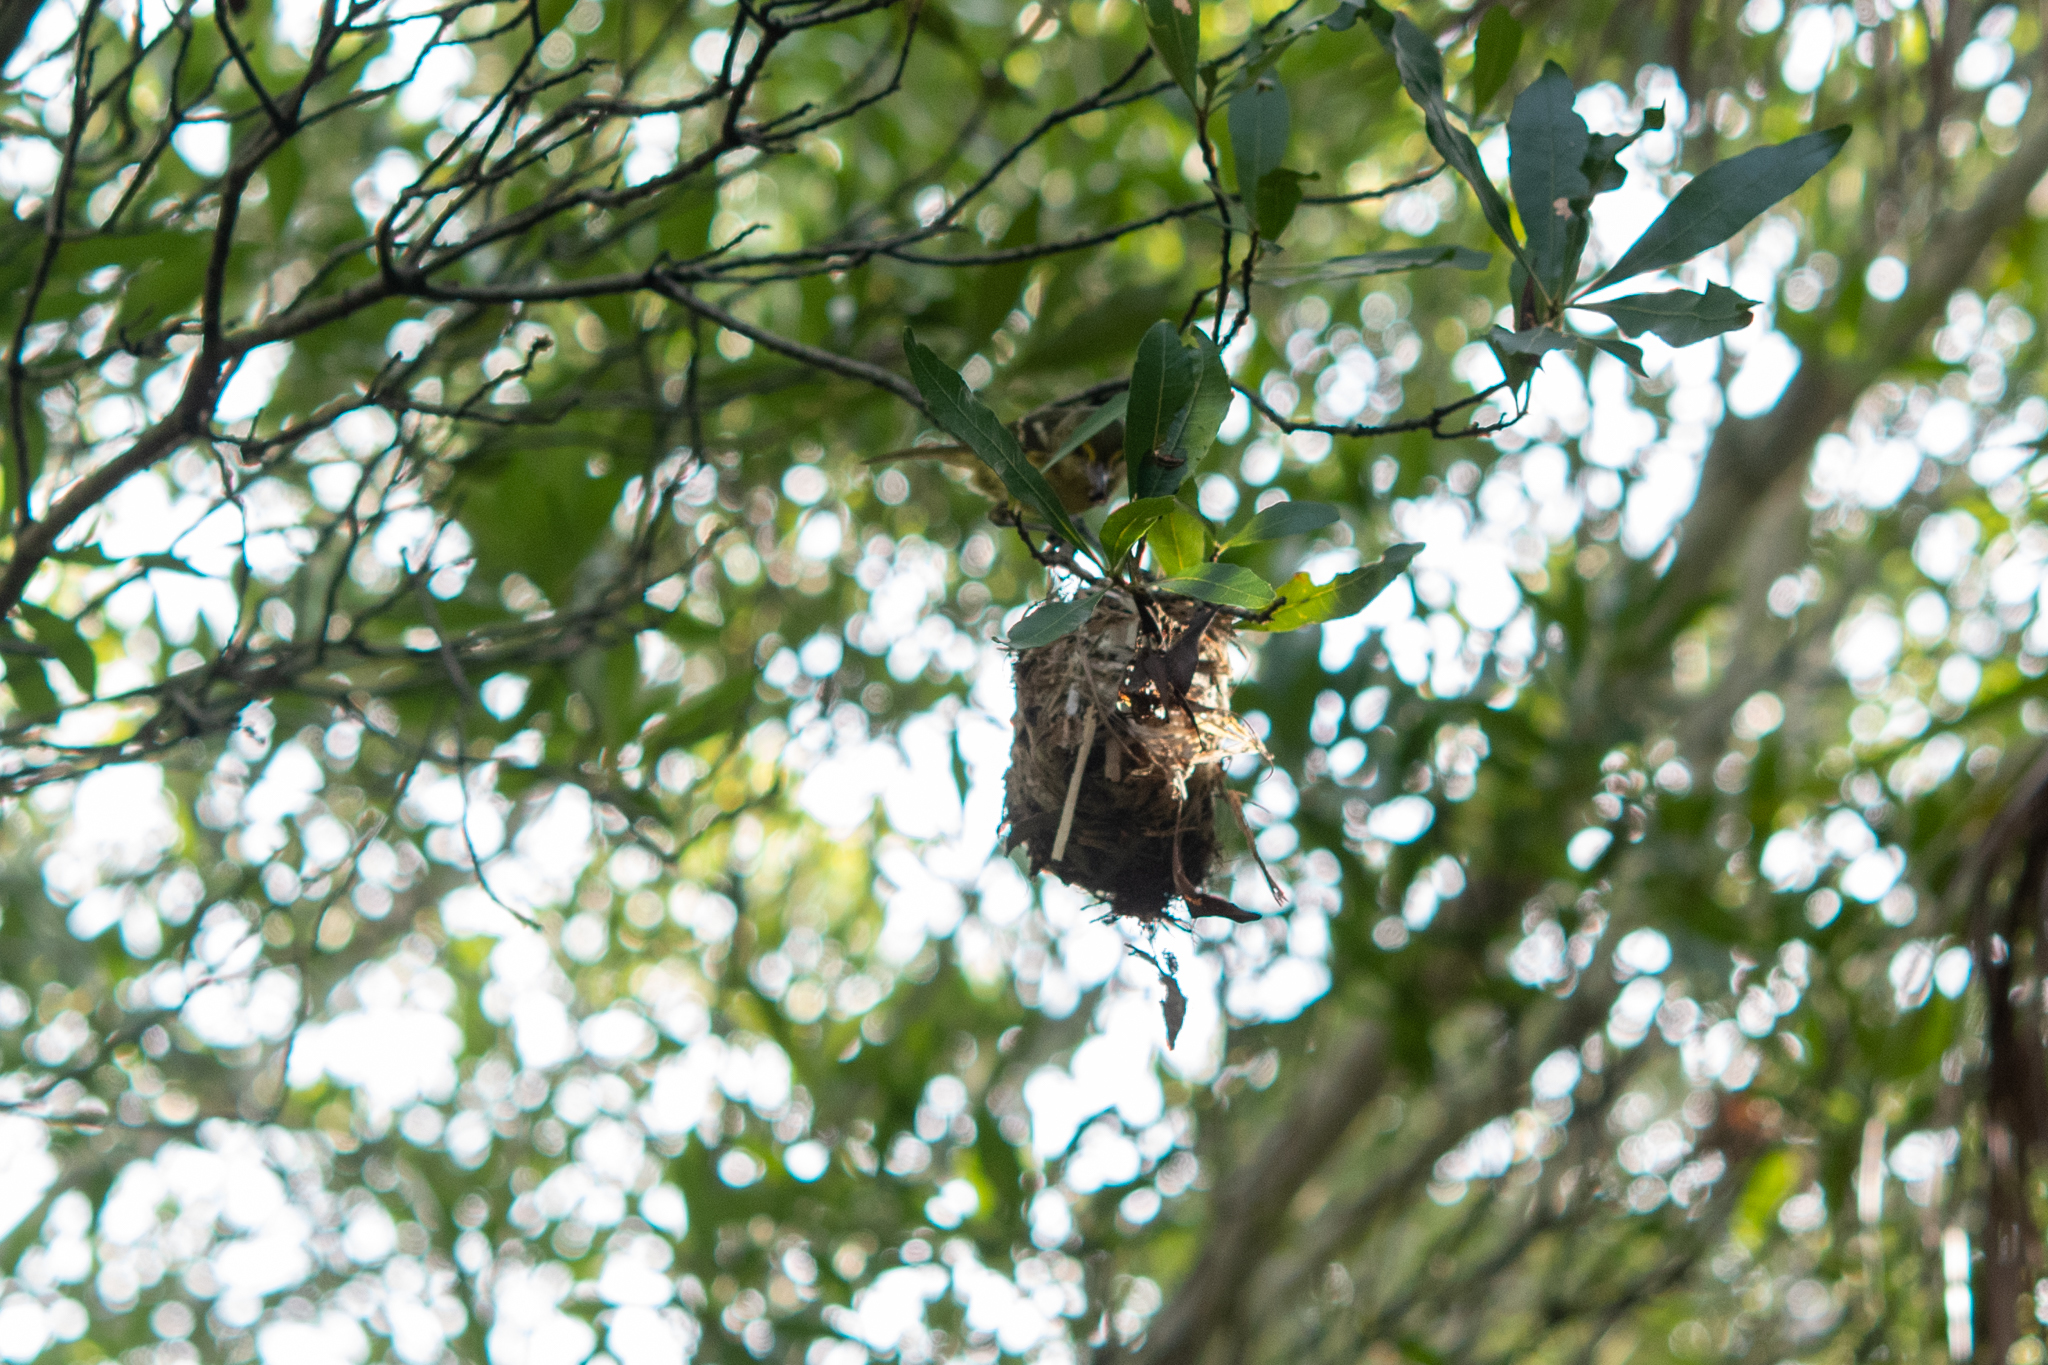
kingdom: Animalia
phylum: Chordata
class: Aves
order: Passeriformes
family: Vireonidae
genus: Vireo
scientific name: Vireo pallens
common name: Mangrove vireo
